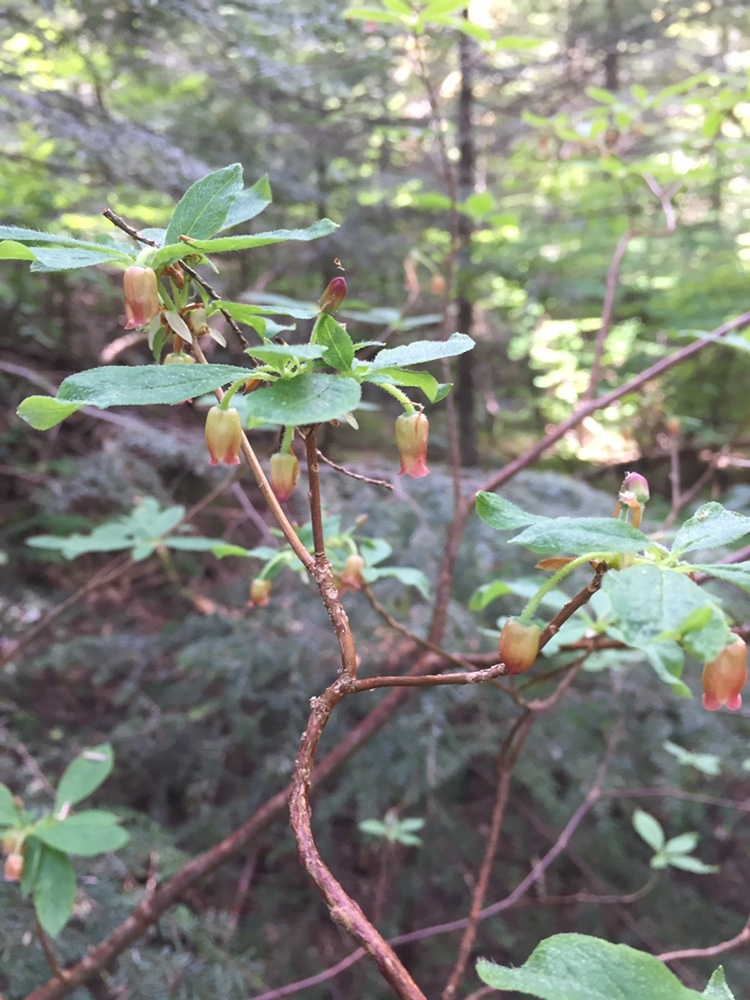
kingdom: Plantae
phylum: Tracheophyta
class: Magnoliopsida
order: Ericales
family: Ericaceae
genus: Rhododendron
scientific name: Rhododendron menziesii
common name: Pacific menziesia
